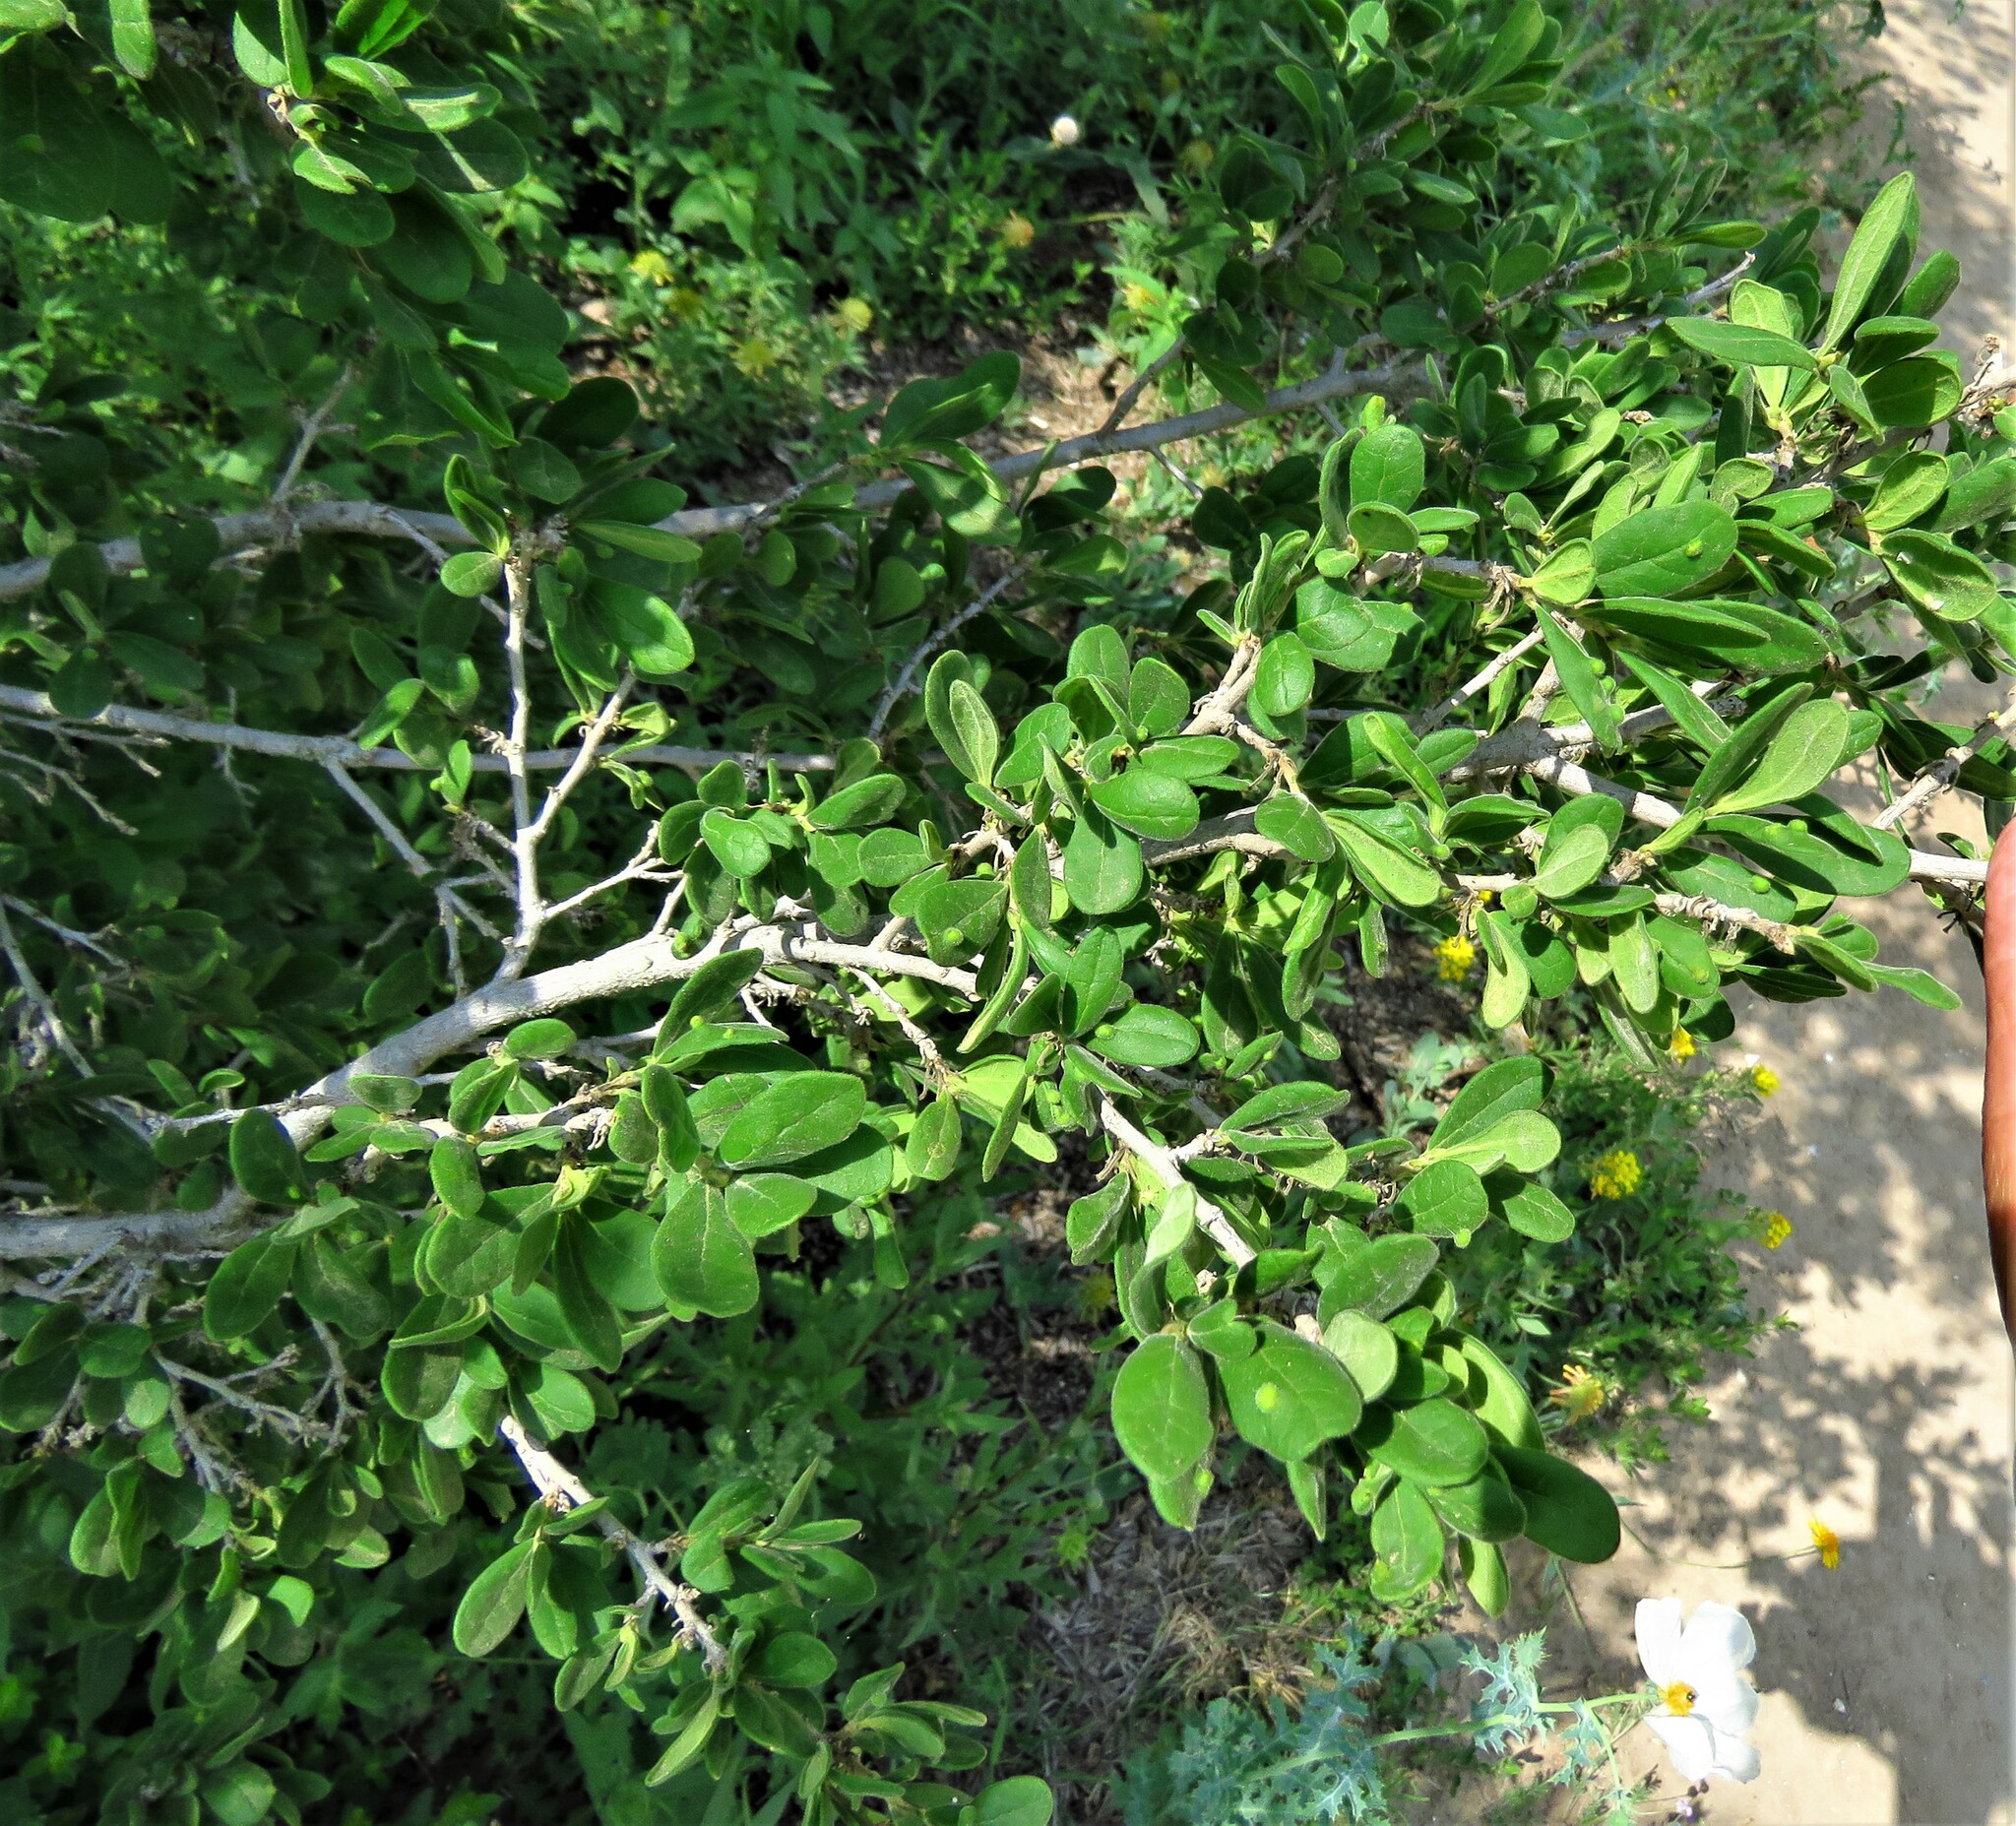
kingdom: Plantae
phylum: Tracheophyta
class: Magnoliopsida
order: Ericales
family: Ebenaceae
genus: Diospyros
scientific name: Diospyros texana
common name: Texas persimmon
